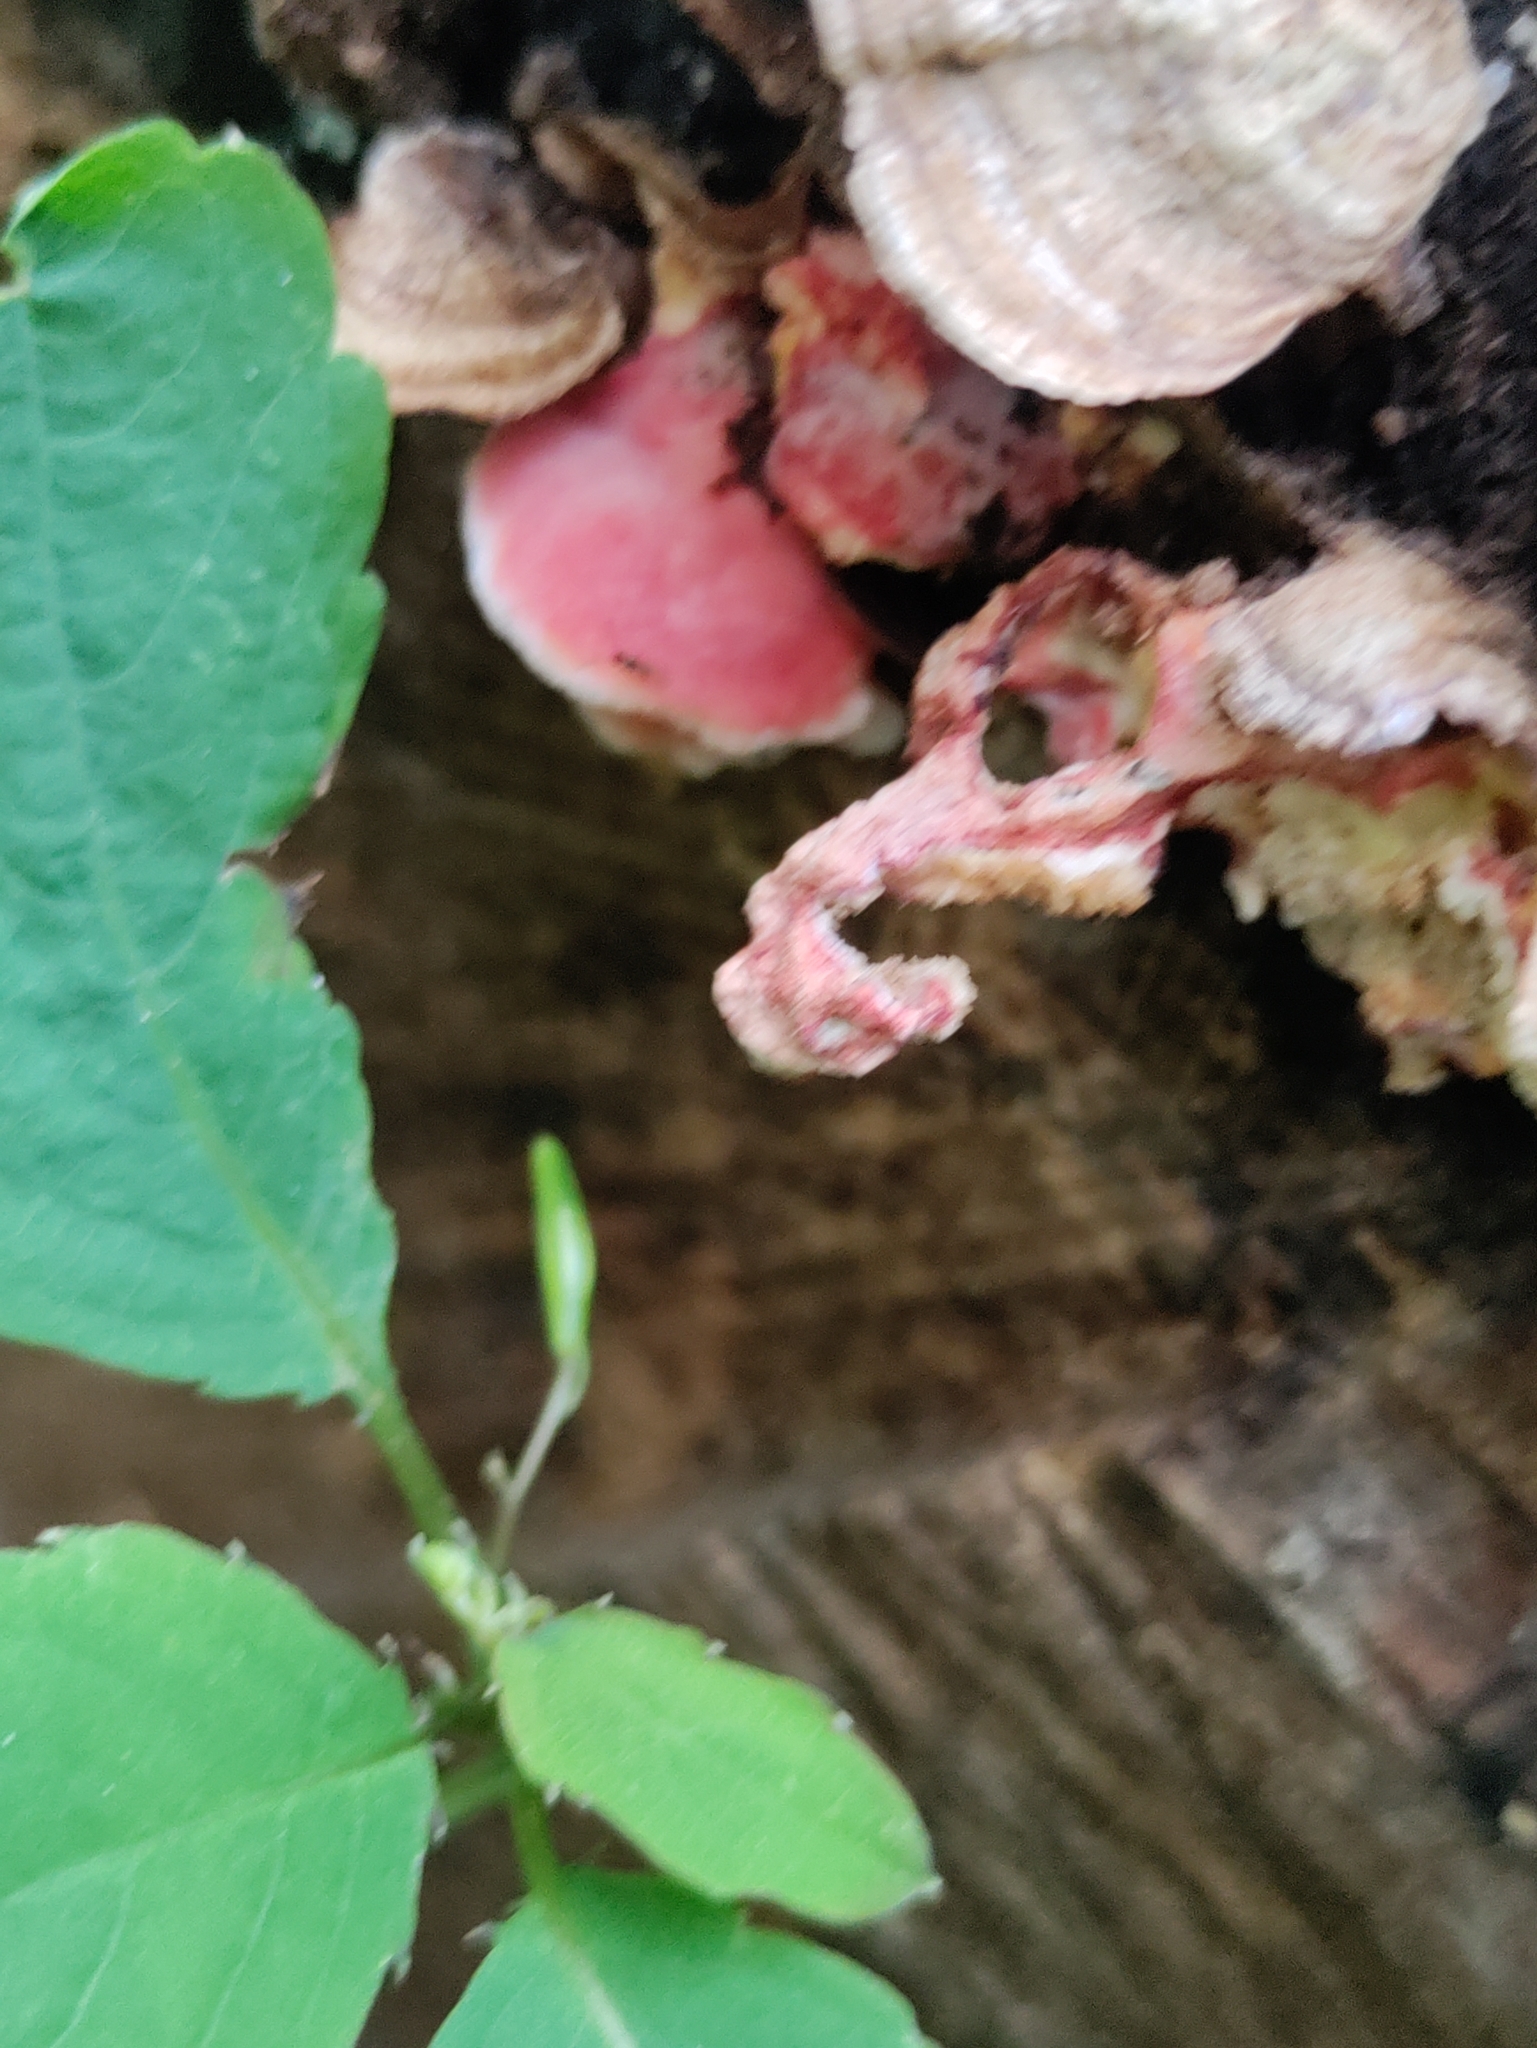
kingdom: Fungi
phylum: Basidiomycota
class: Agaricomycetes
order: Polyporales
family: Irpicaceae
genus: Byssomerulius
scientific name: Byssomerulius incarnatus
